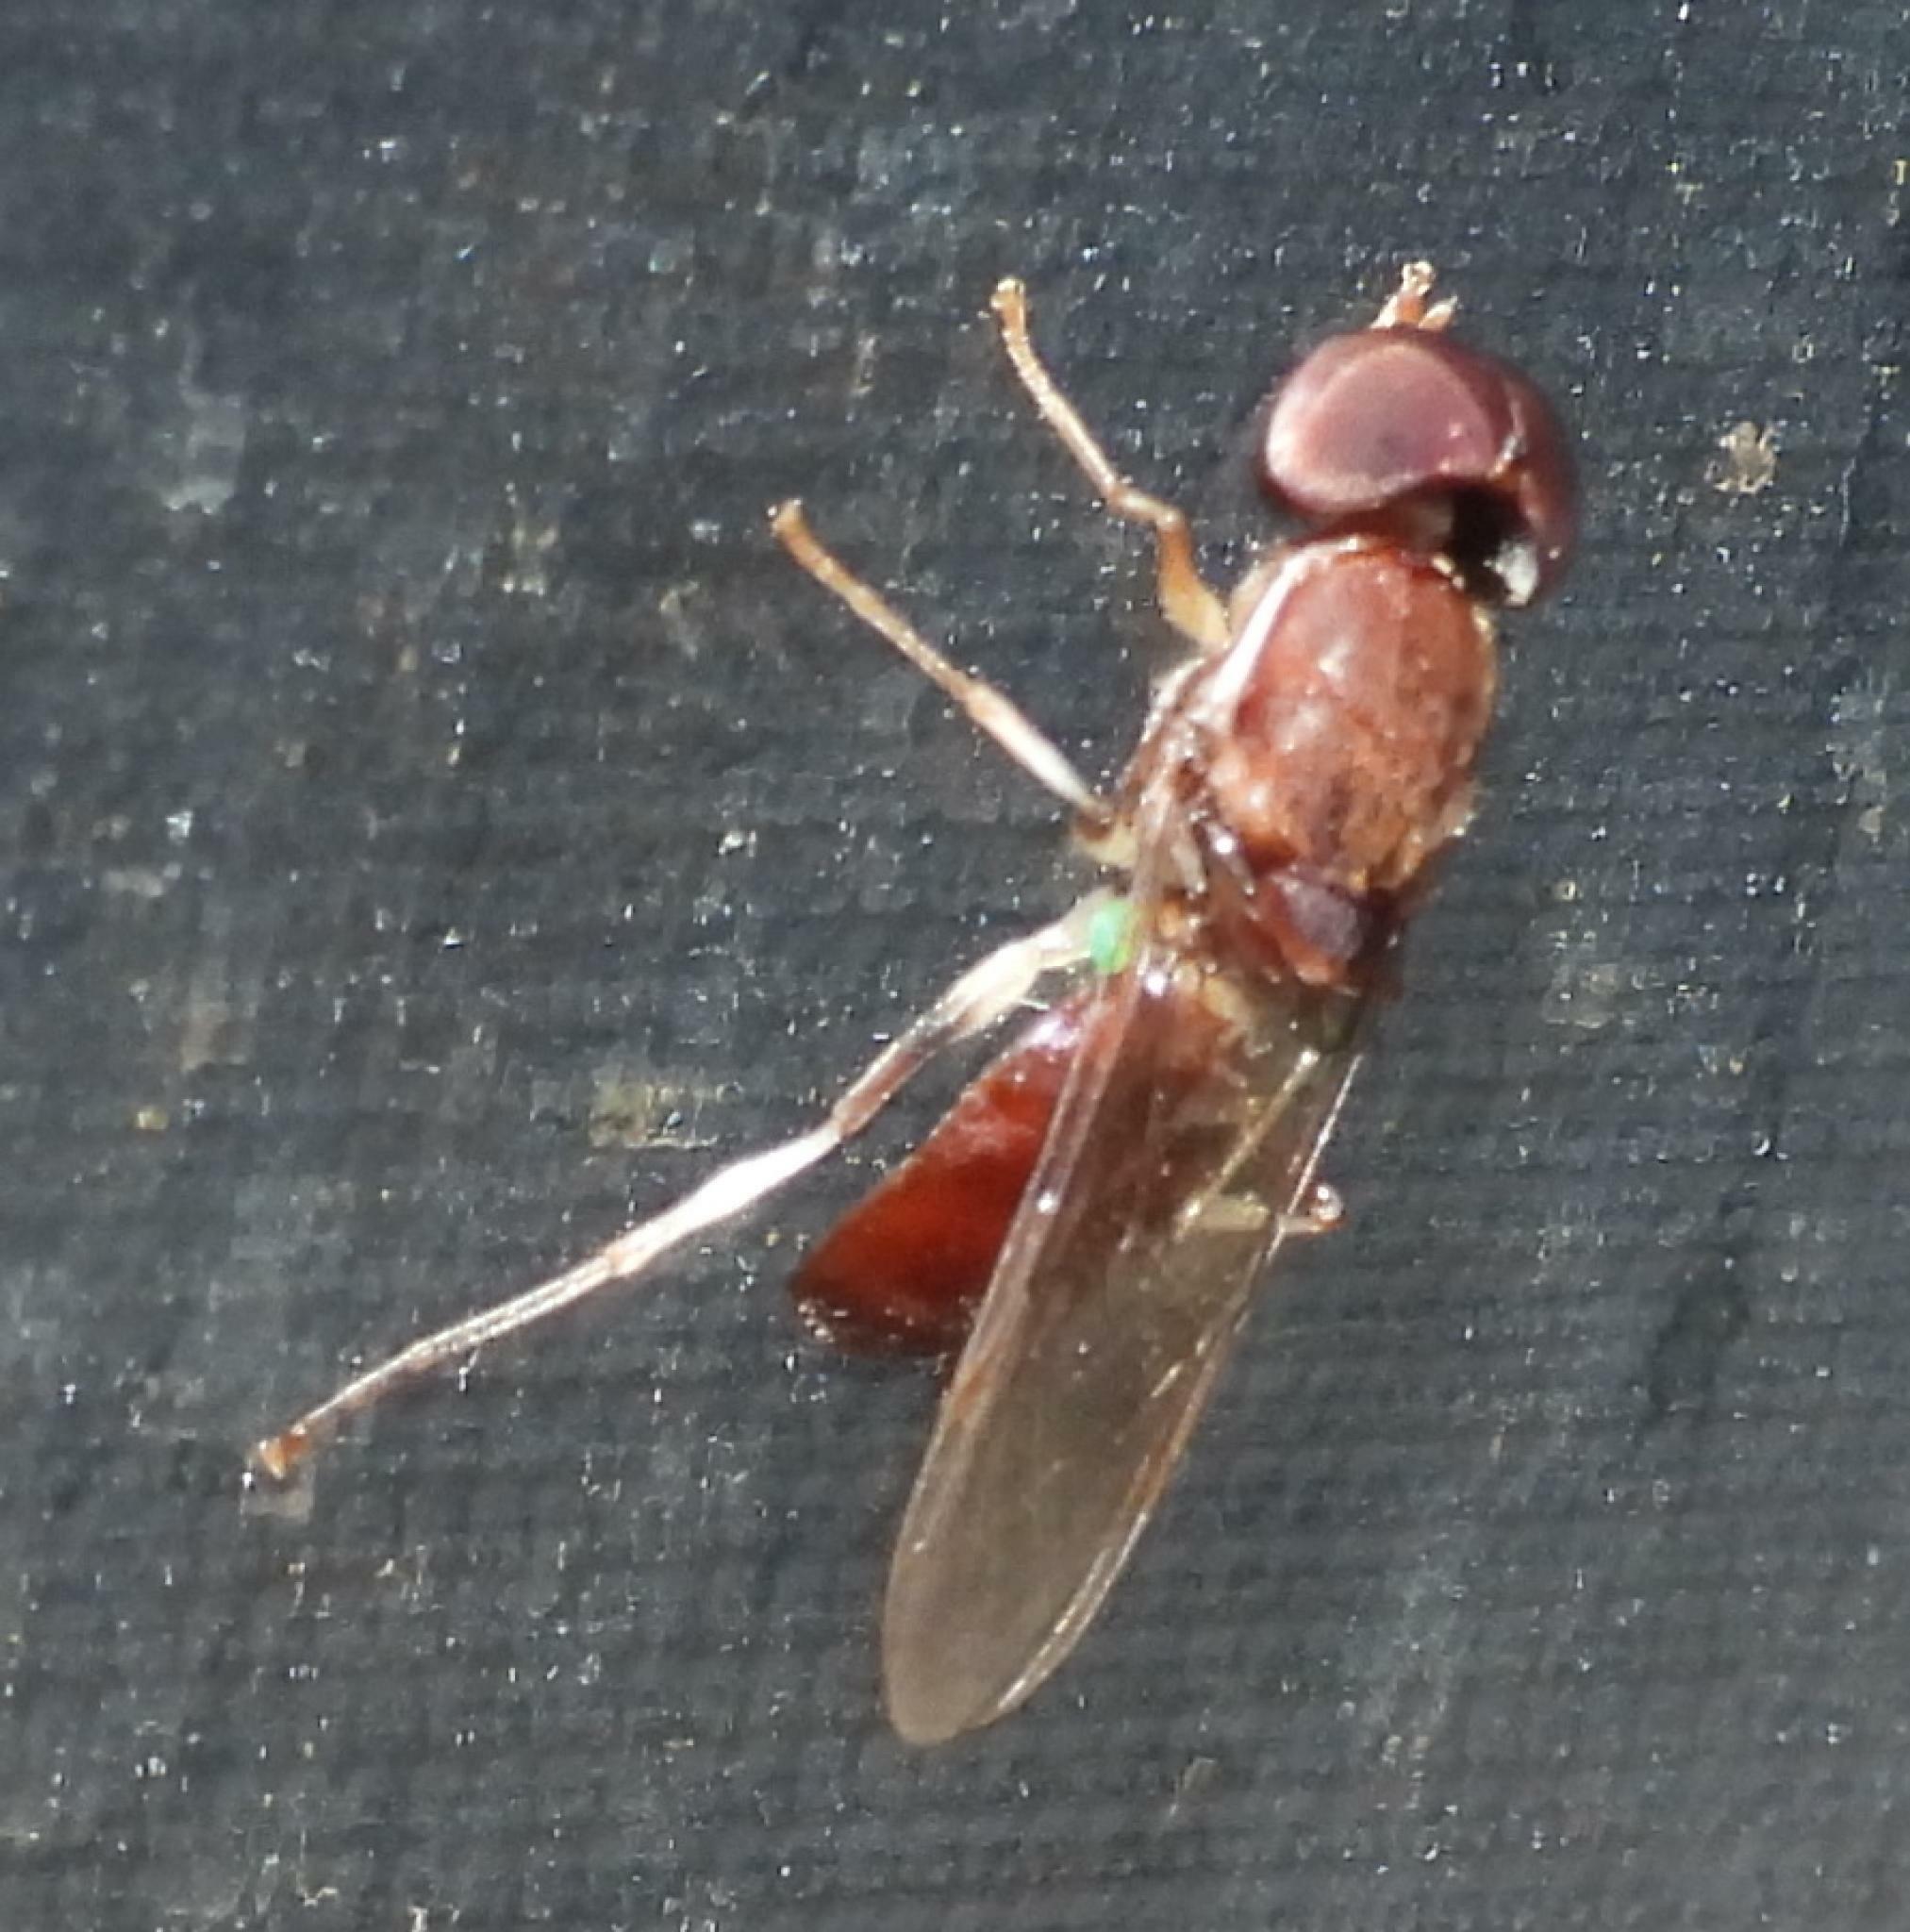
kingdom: Animalia
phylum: Arthropoda
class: Insecta
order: Diptera
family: Stratiomyidae
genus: Cephalochrysa
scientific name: Cephalochrysa rufibasis
